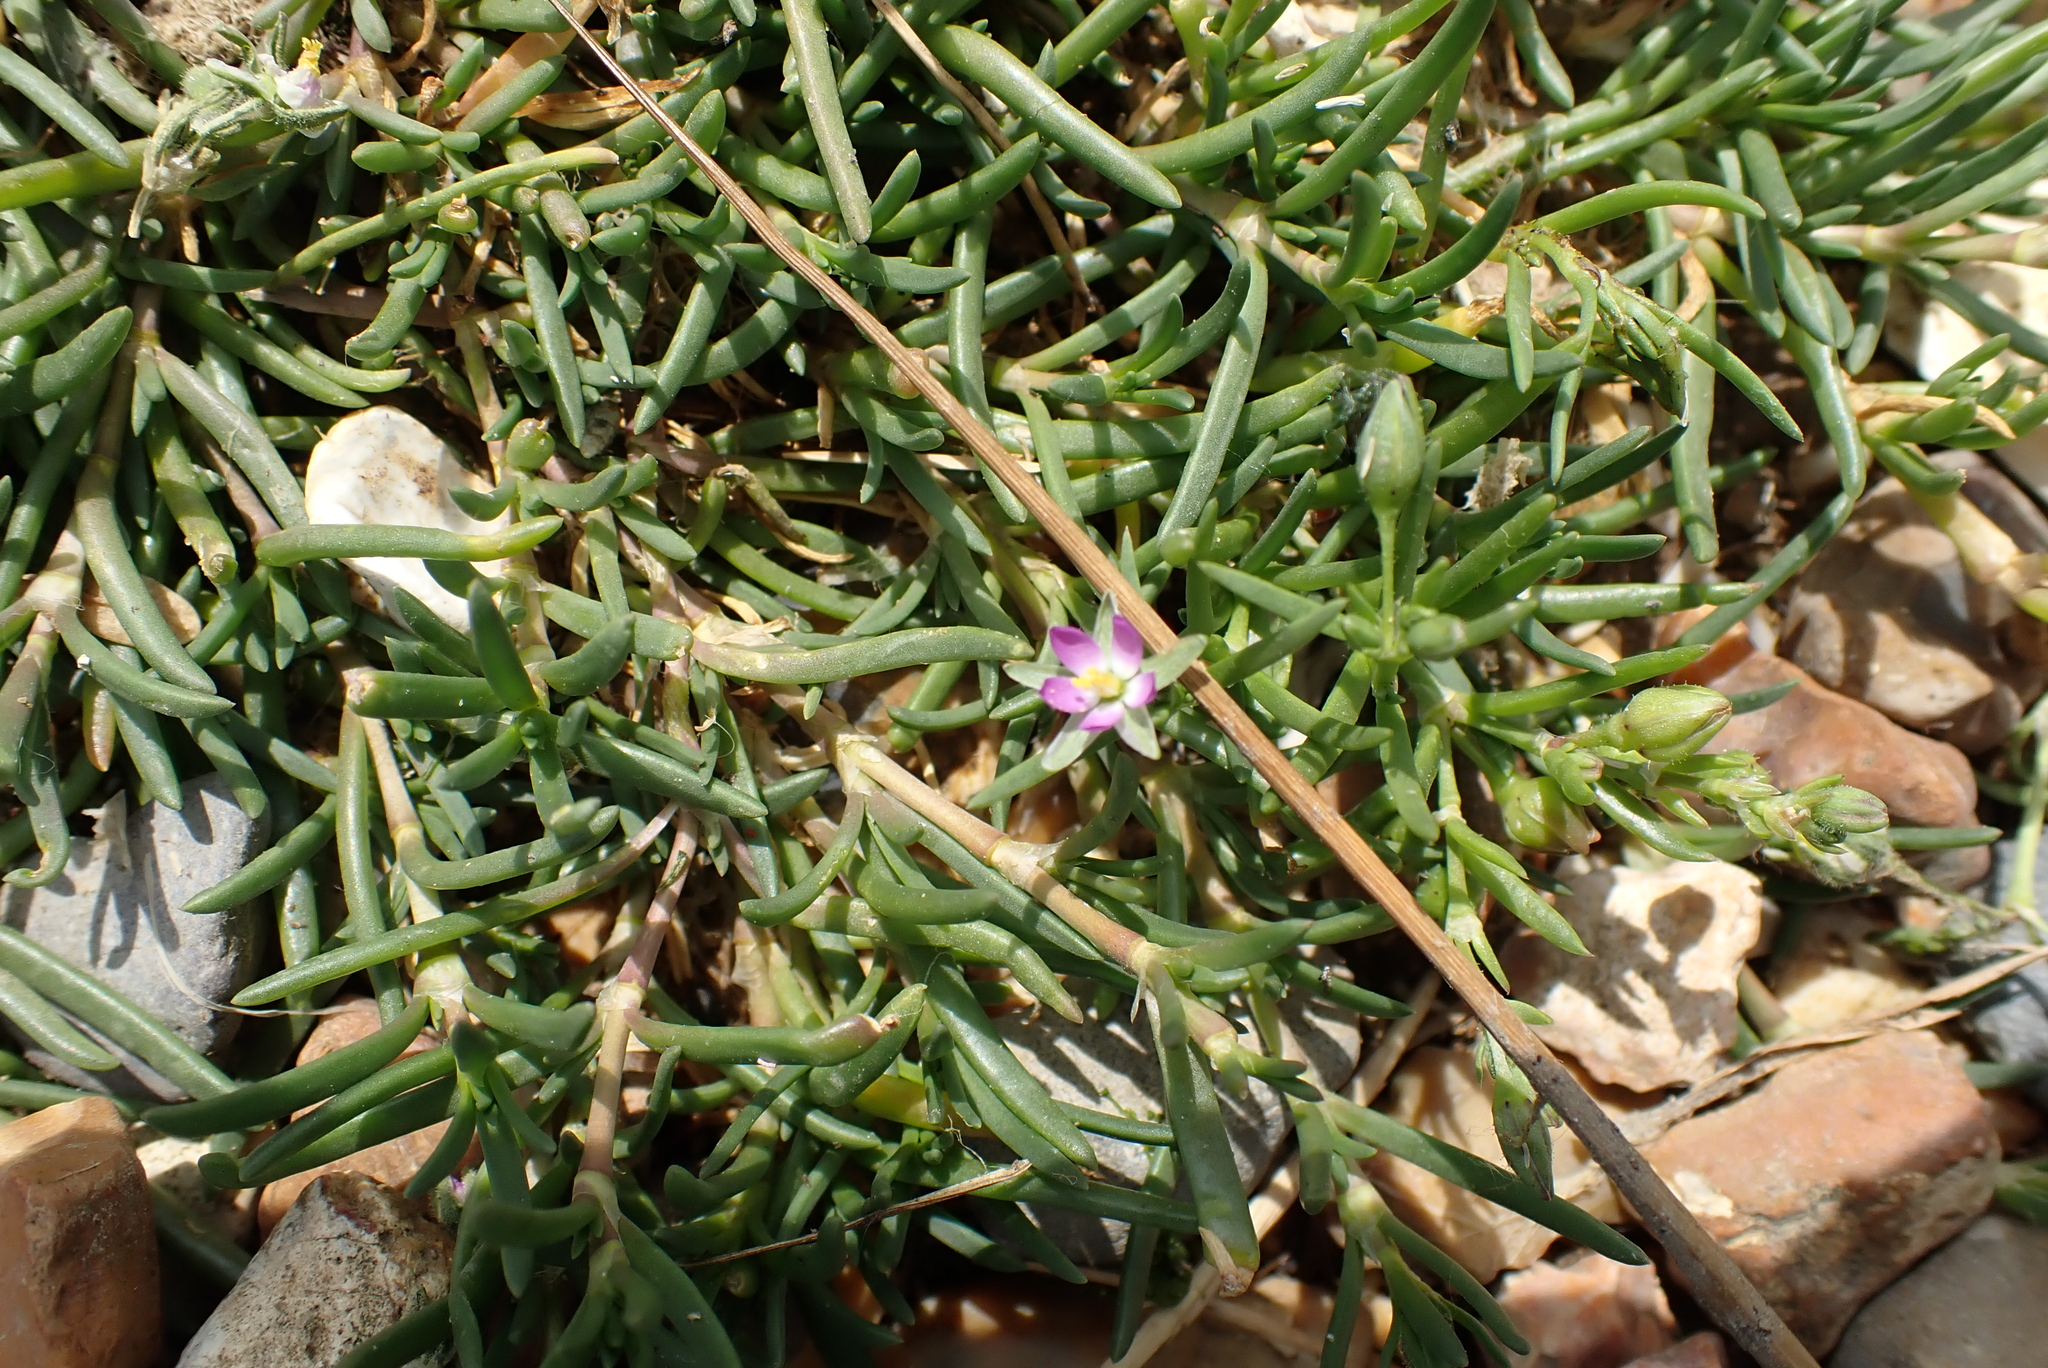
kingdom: Plantae
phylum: Tracheophyta
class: Magnoliopsida
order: Caryophyllales
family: Caryophyllaceae
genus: Spergularia
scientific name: Spergularia marina
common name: Lesser sea-spurrey
